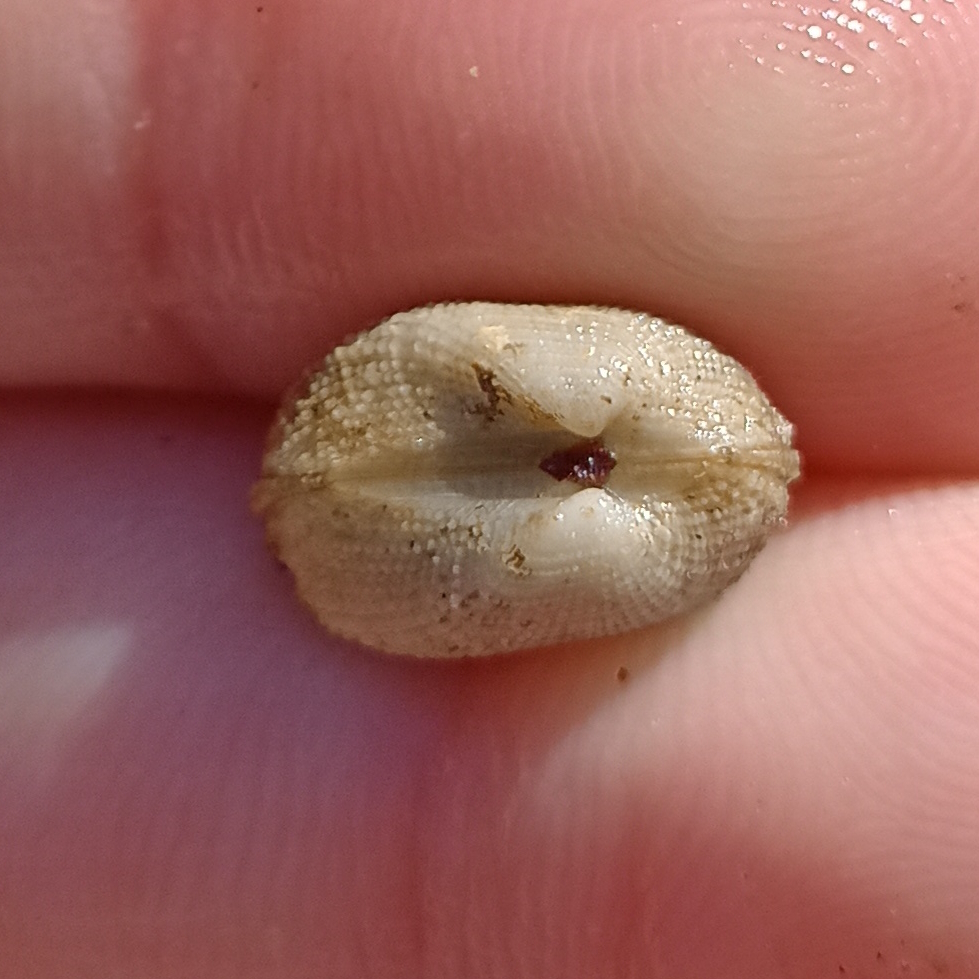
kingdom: Animalia
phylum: Mollusca
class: Bivalvia
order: Arcida
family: Noetiidae
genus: Arcopsis
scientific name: Arcopsis adamsi
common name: Cancellate miniature ark
